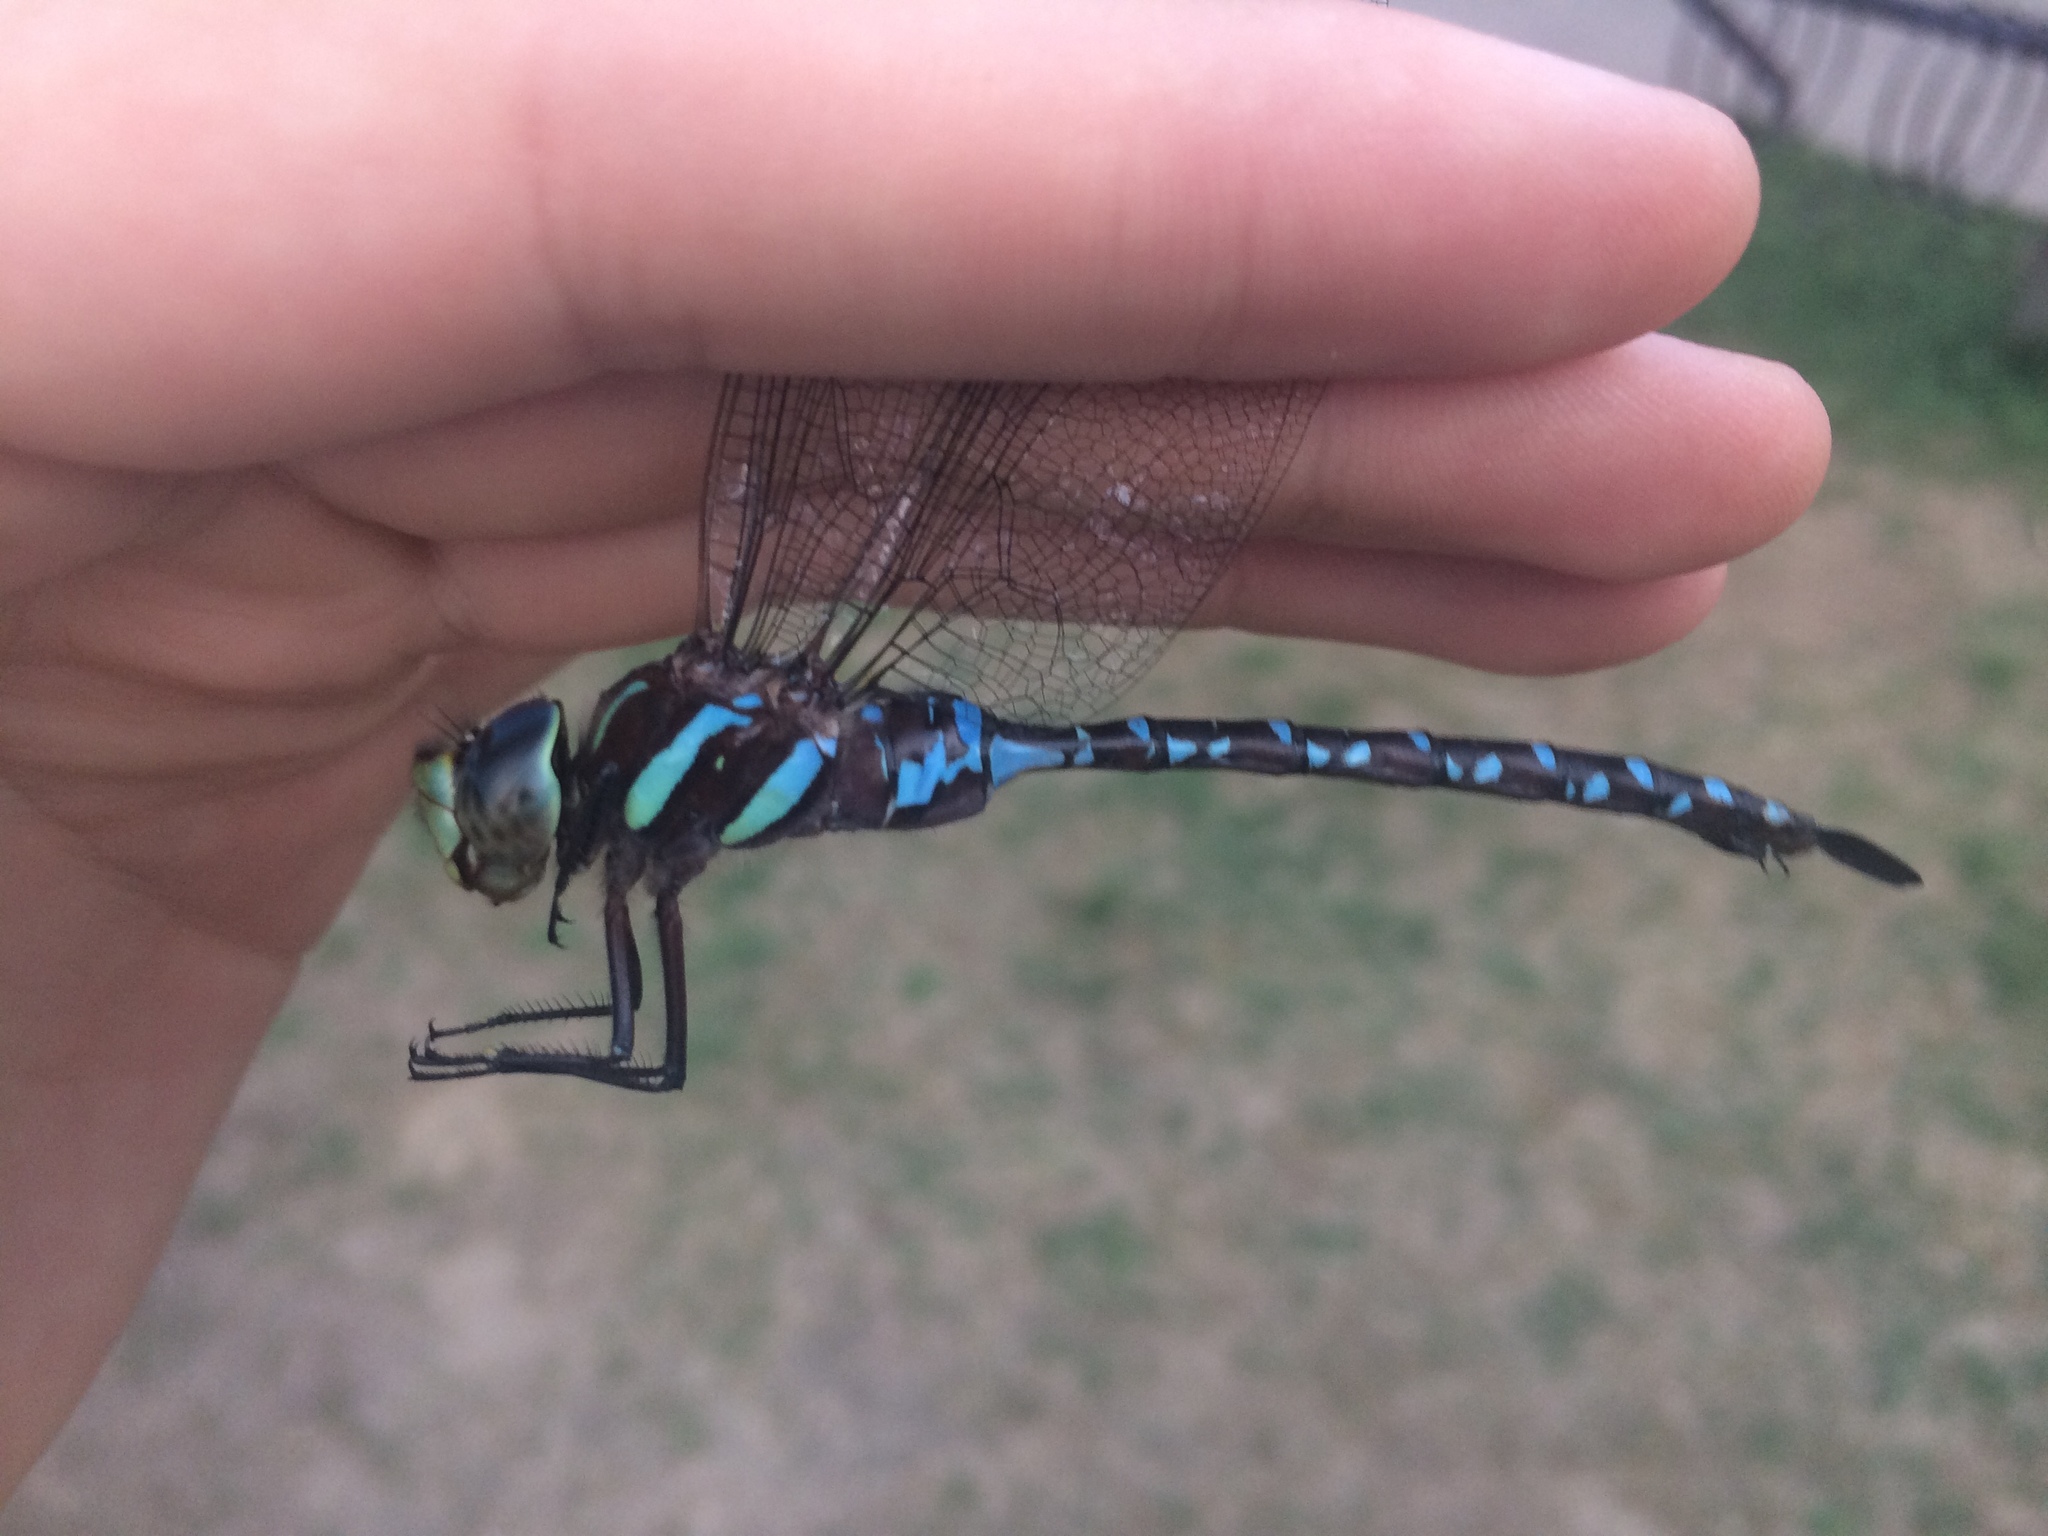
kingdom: Animalia
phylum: Arthropoda
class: Insecta
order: Odonata
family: Aeshnidae
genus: Aeshna
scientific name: Aeshna tuberculifera
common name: Aeschne à tubercules
